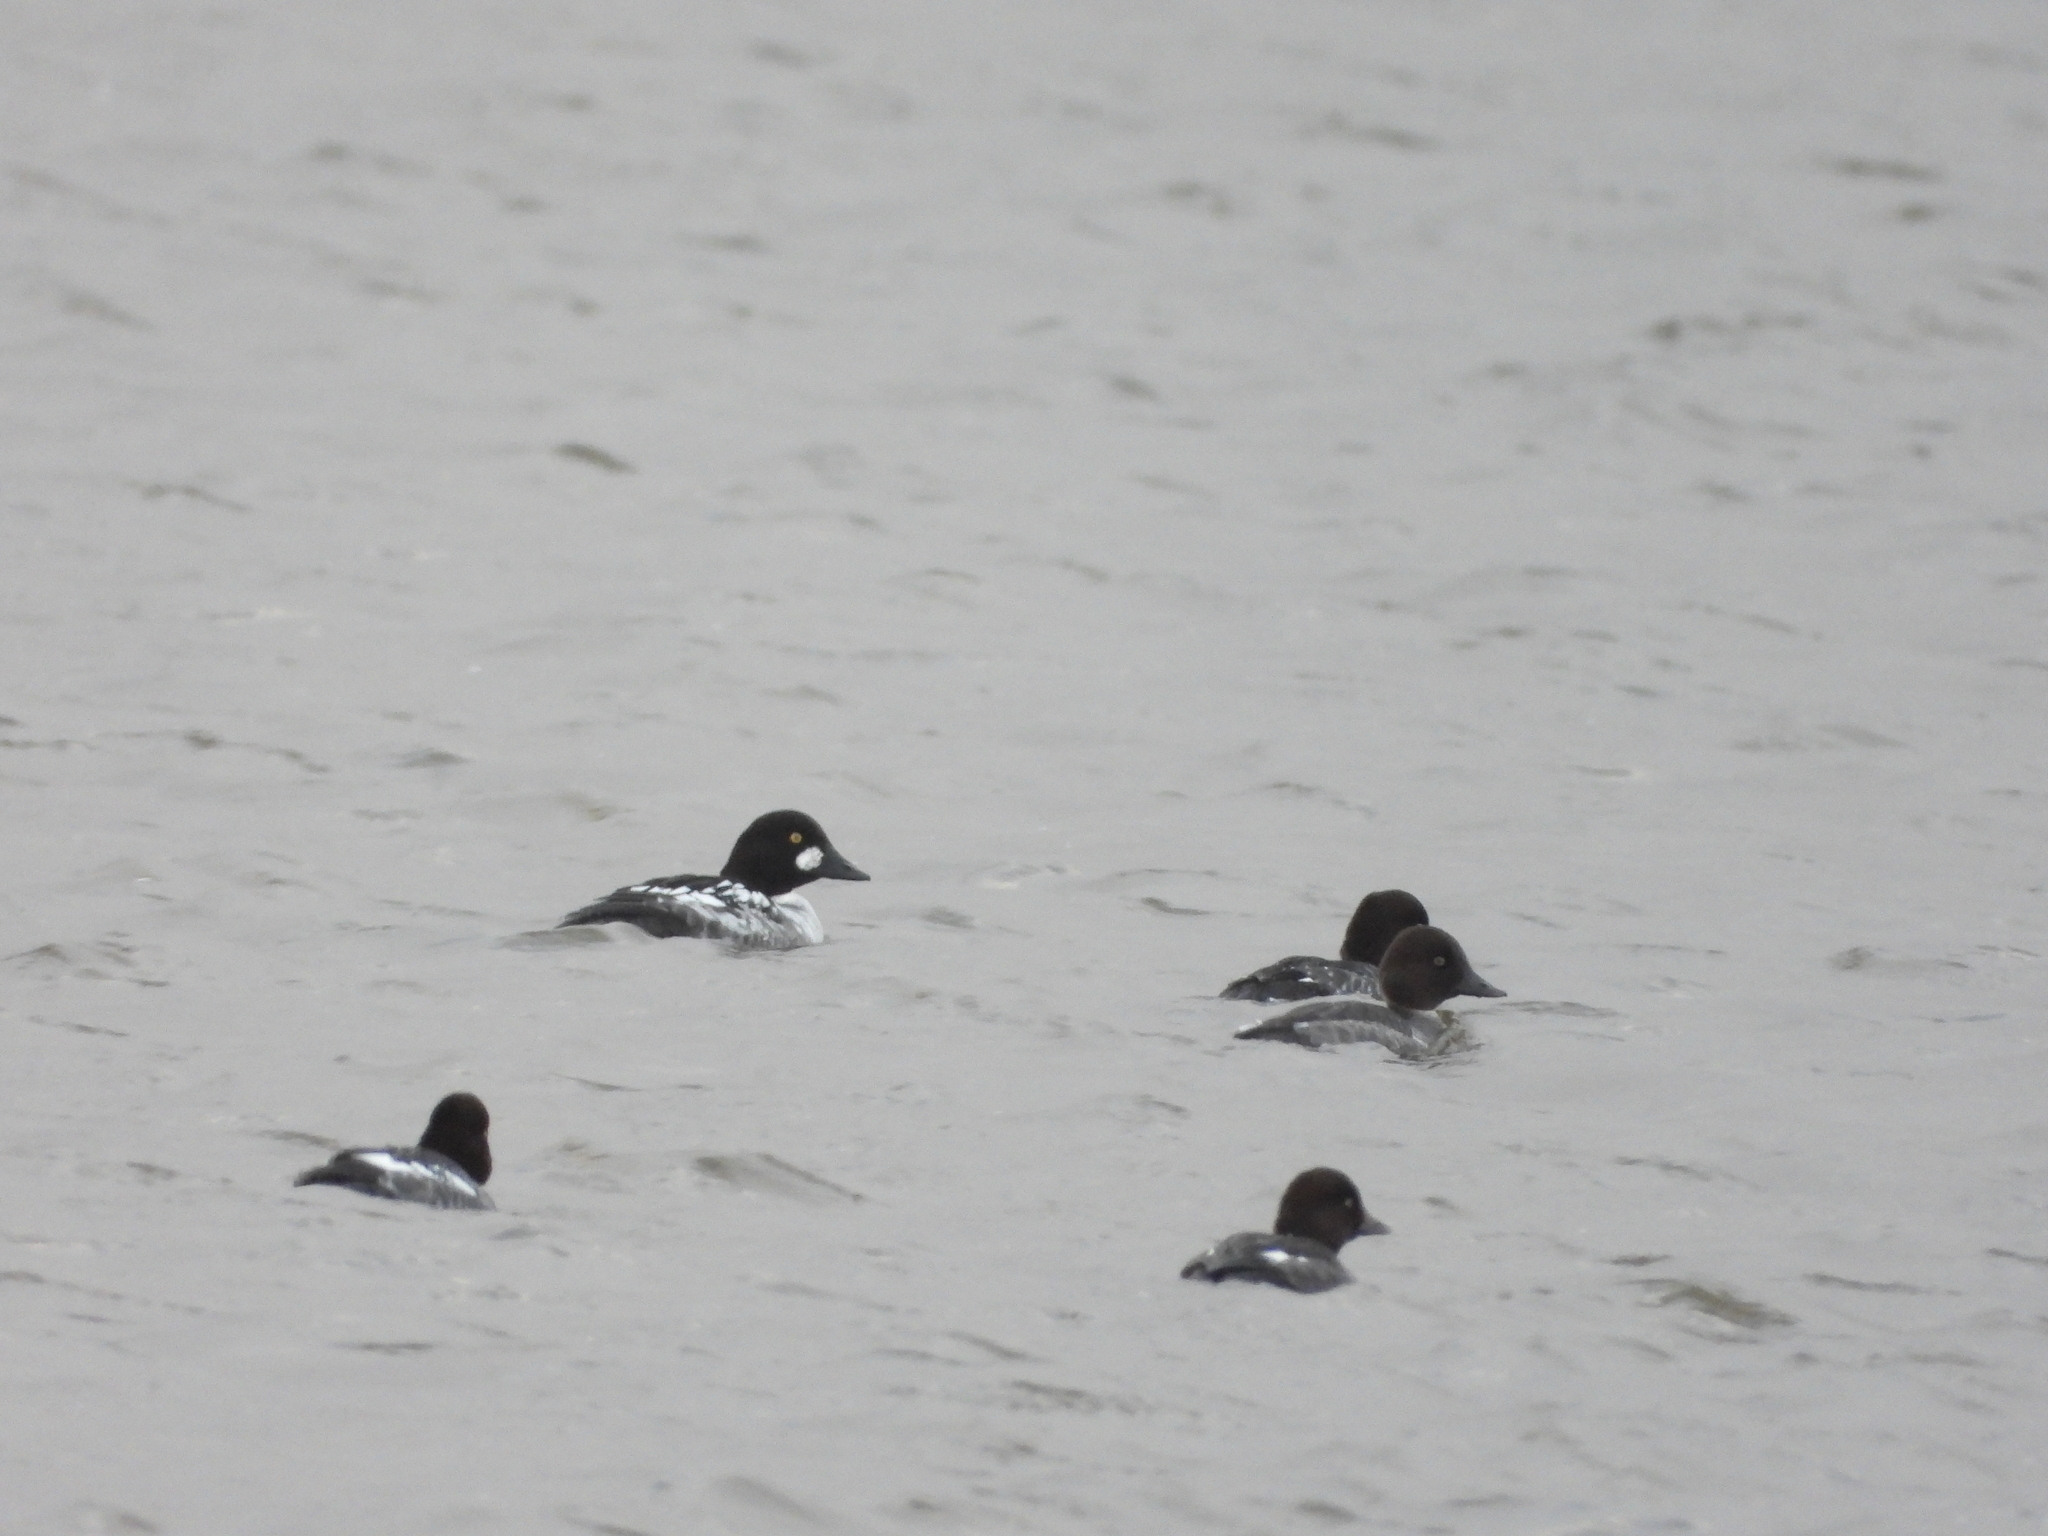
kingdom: Animalia
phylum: Chordata
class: Aves
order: Anseriformes
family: Anatidae
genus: Bucephala
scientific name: Bucephala clangula
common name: Common goldeneye
